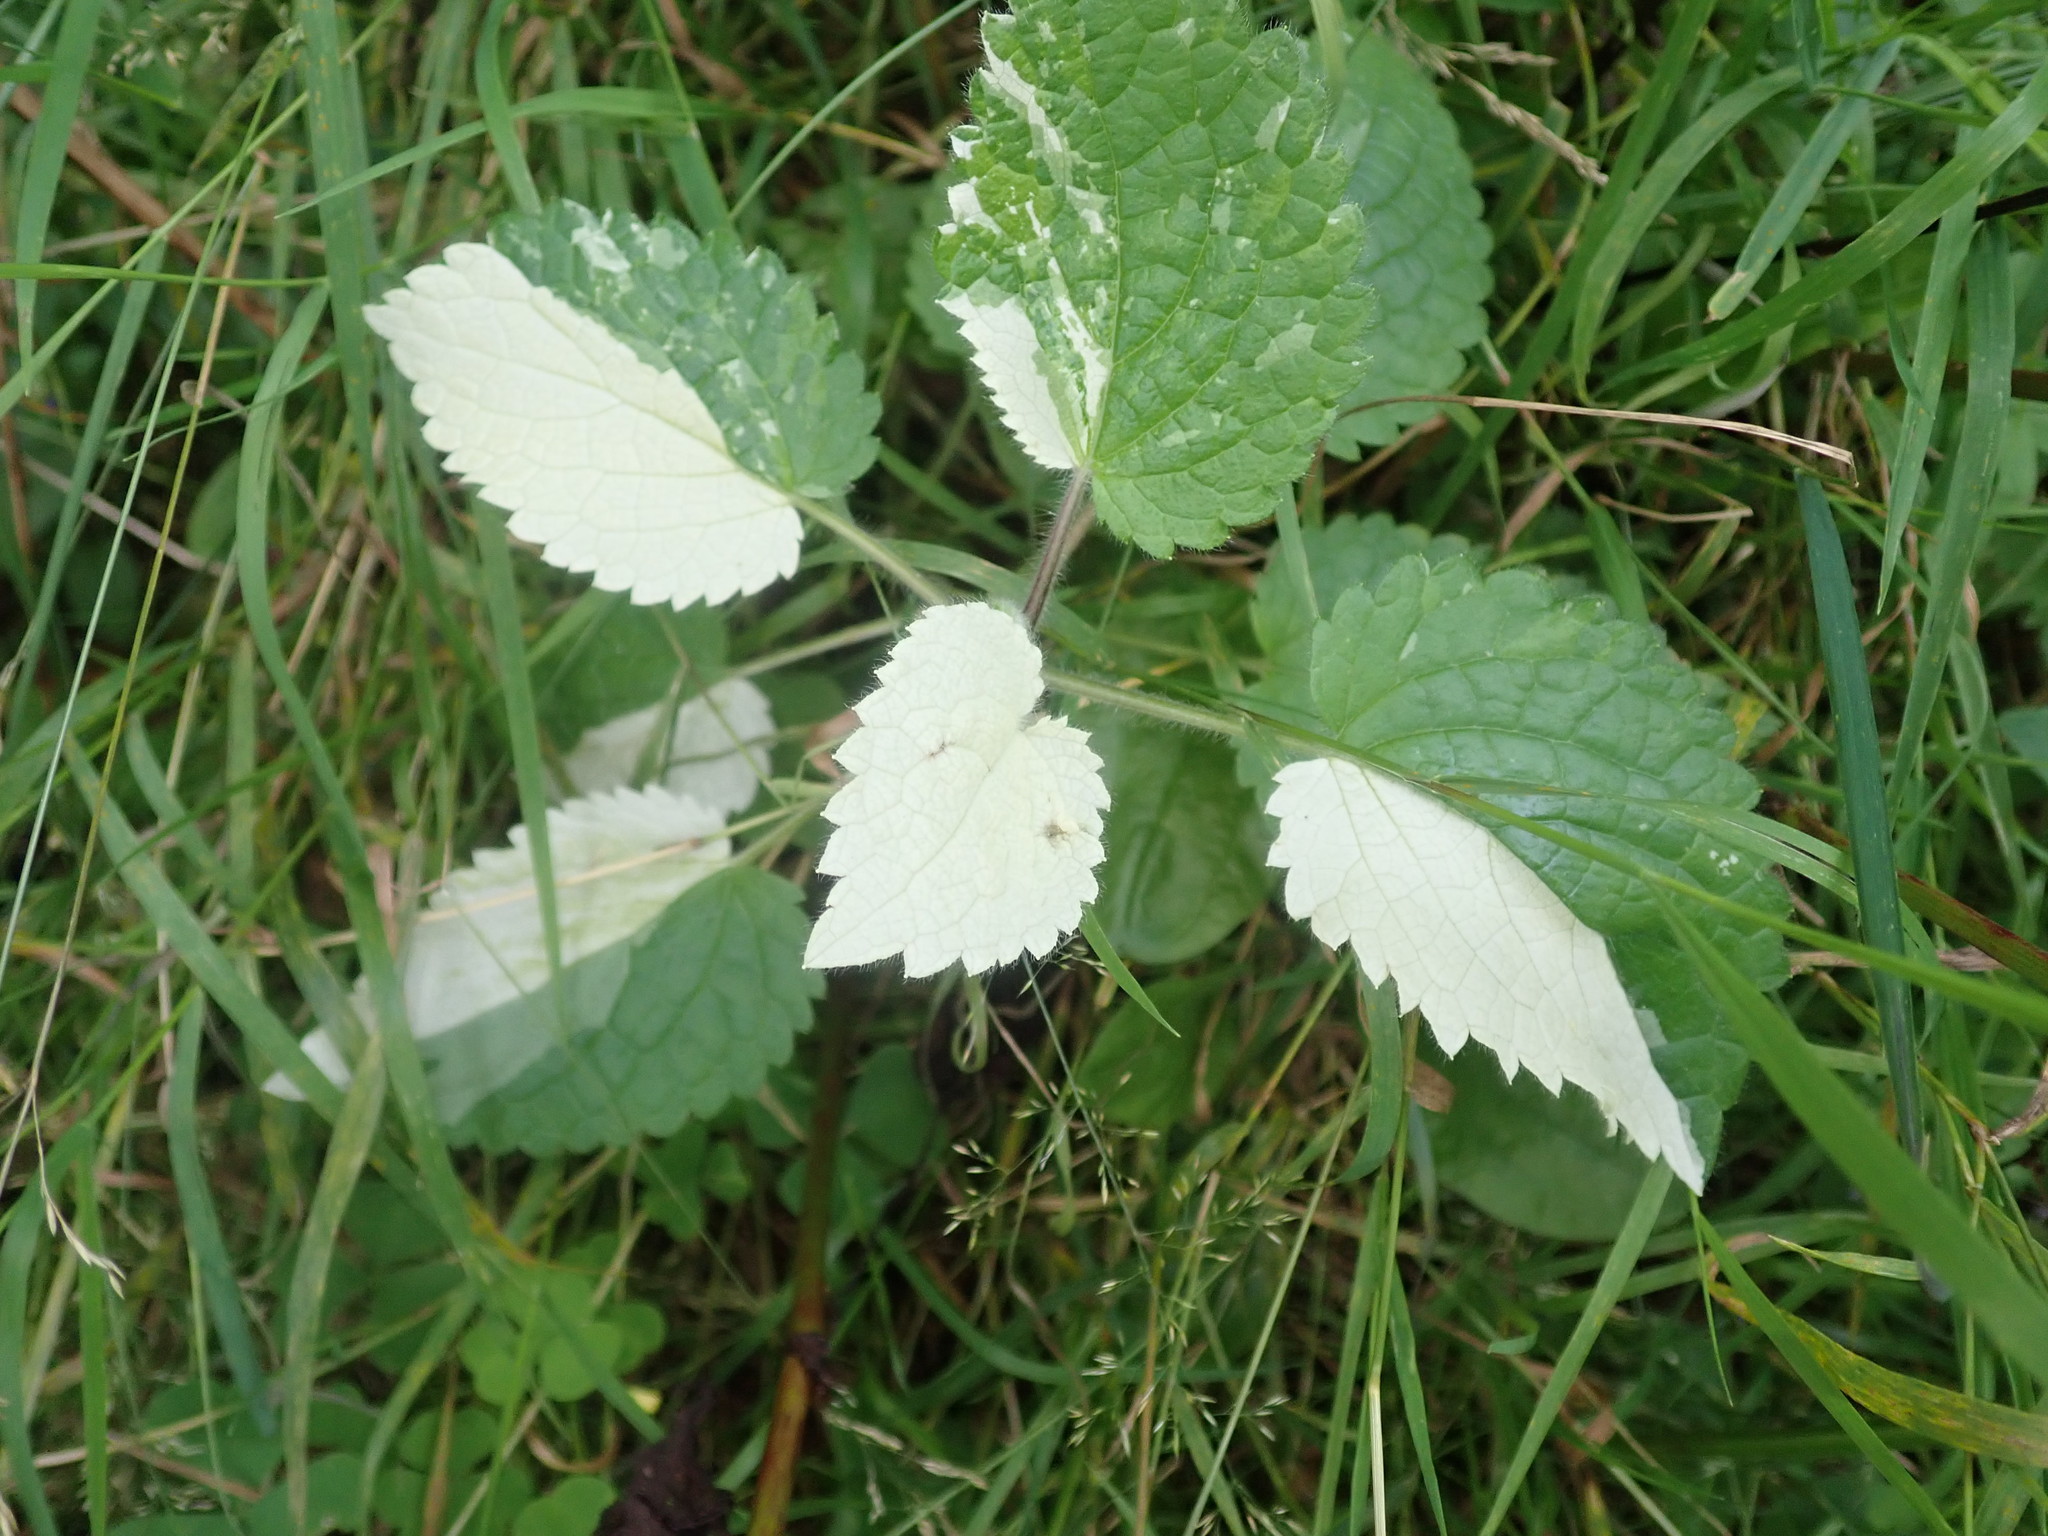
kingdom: Plantae
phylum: Tracheophyta
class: Magnoliopsida
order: Rosales
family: Urticaceae
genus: Urtica
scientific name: Urtica dioica
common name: Common nettle
